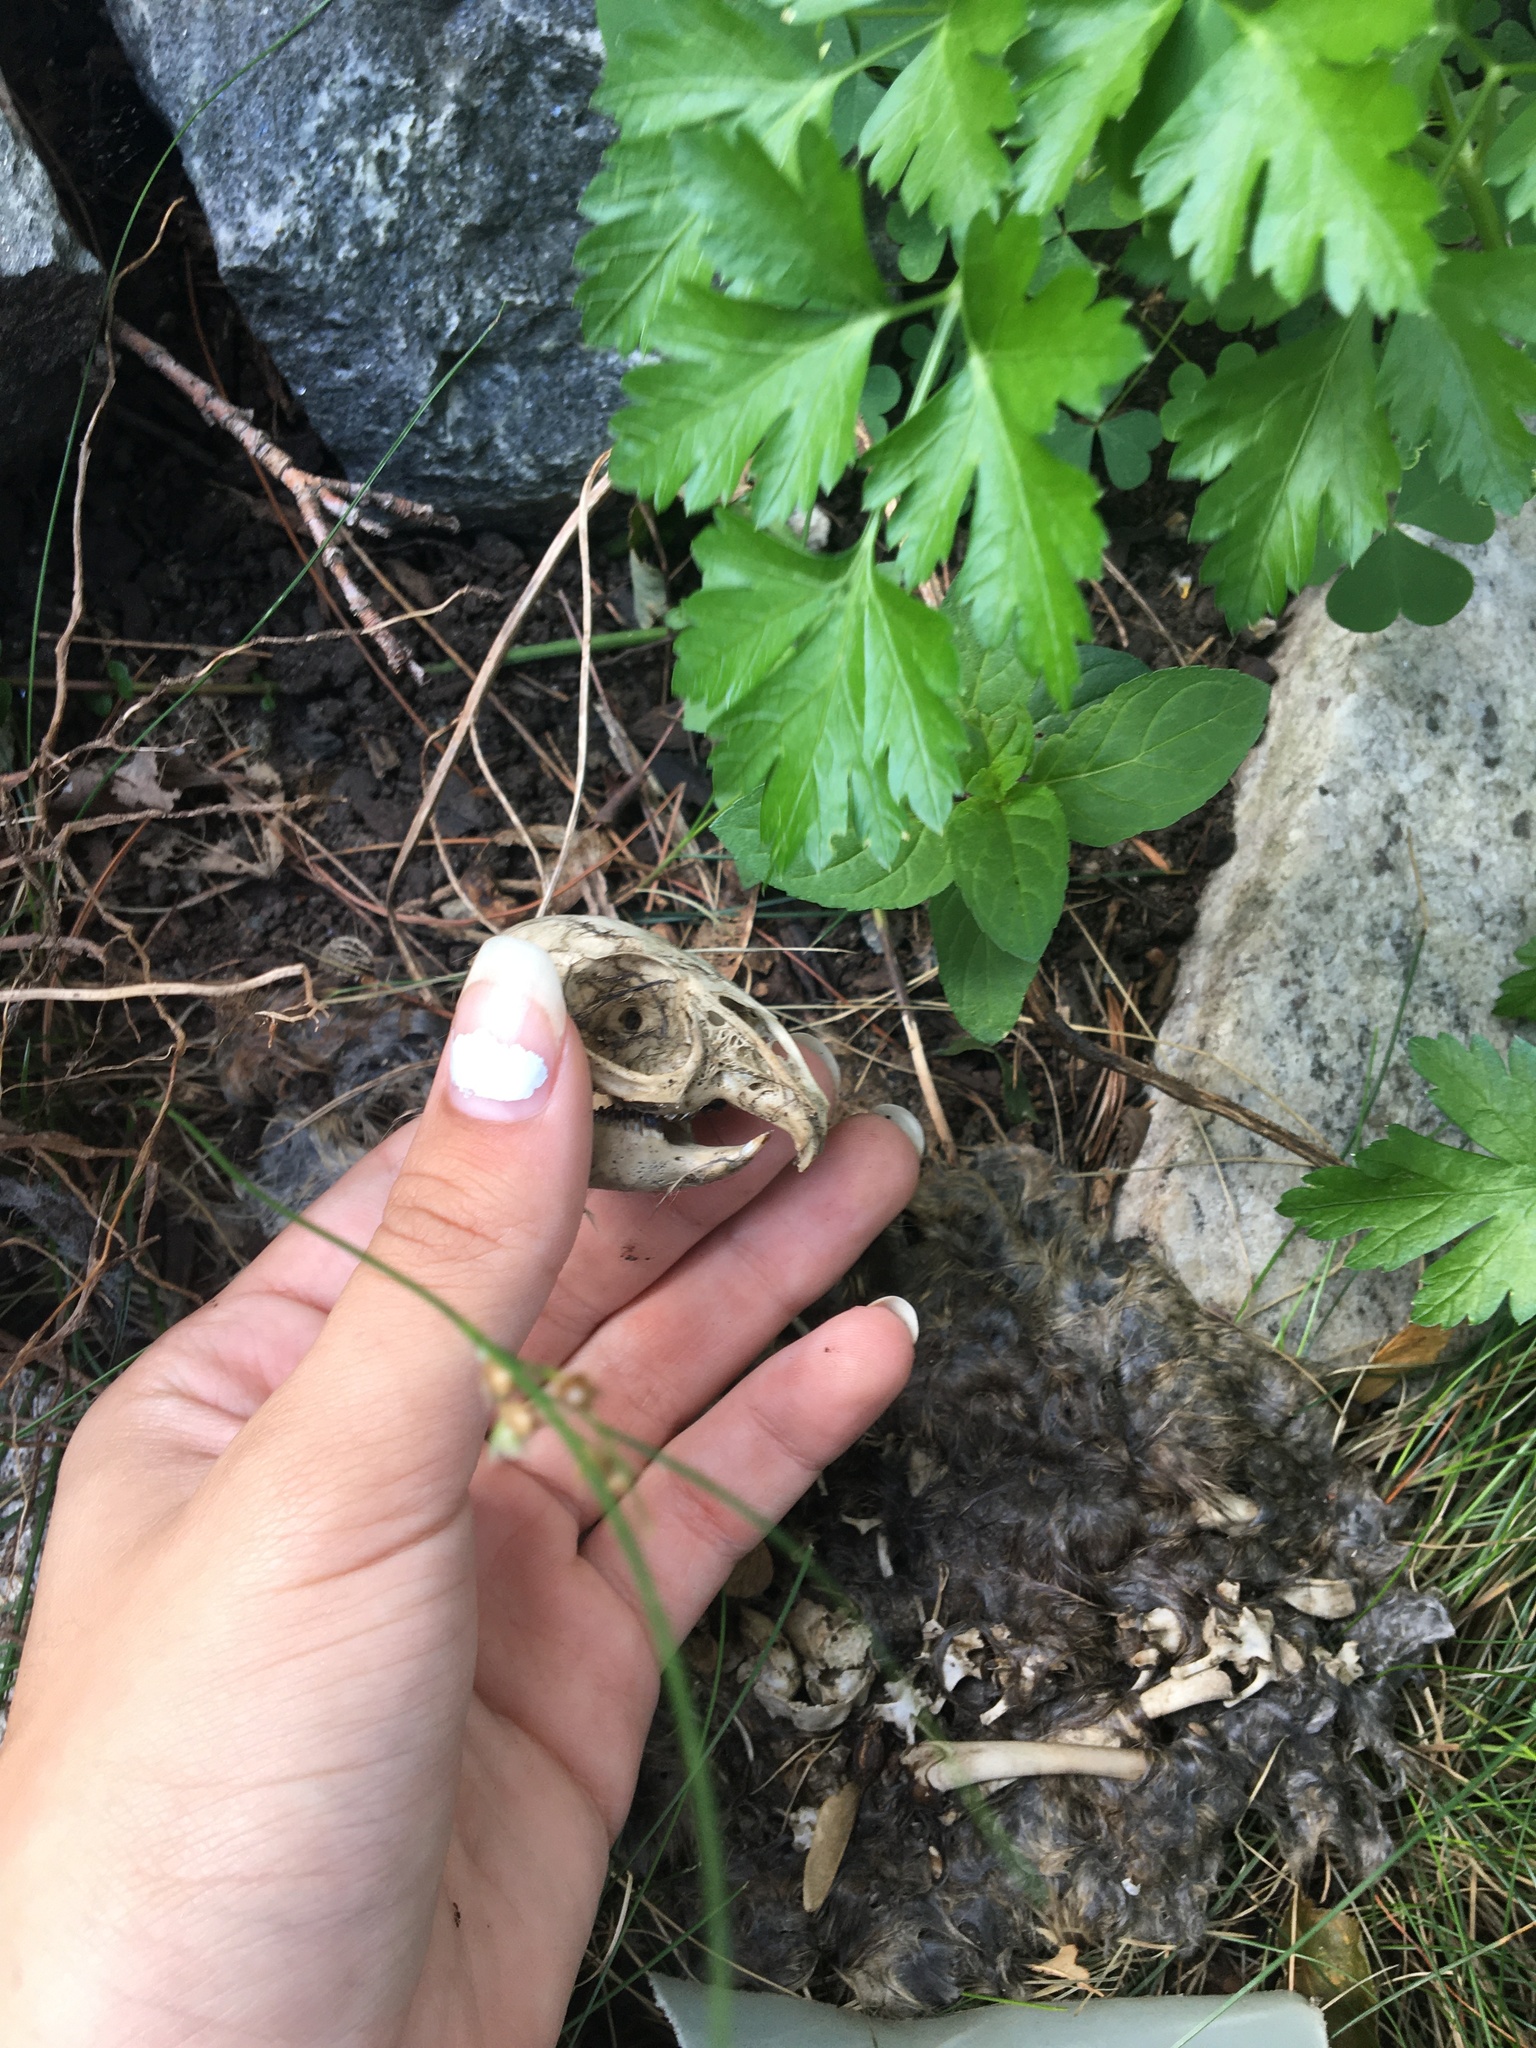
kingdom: Animalia
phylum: Chordata
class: Mammalia
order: Lagomorpha
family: Leporidae
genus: Sylvilagus
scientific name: Sylvilagus floridanus
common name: Eastern cottontail
